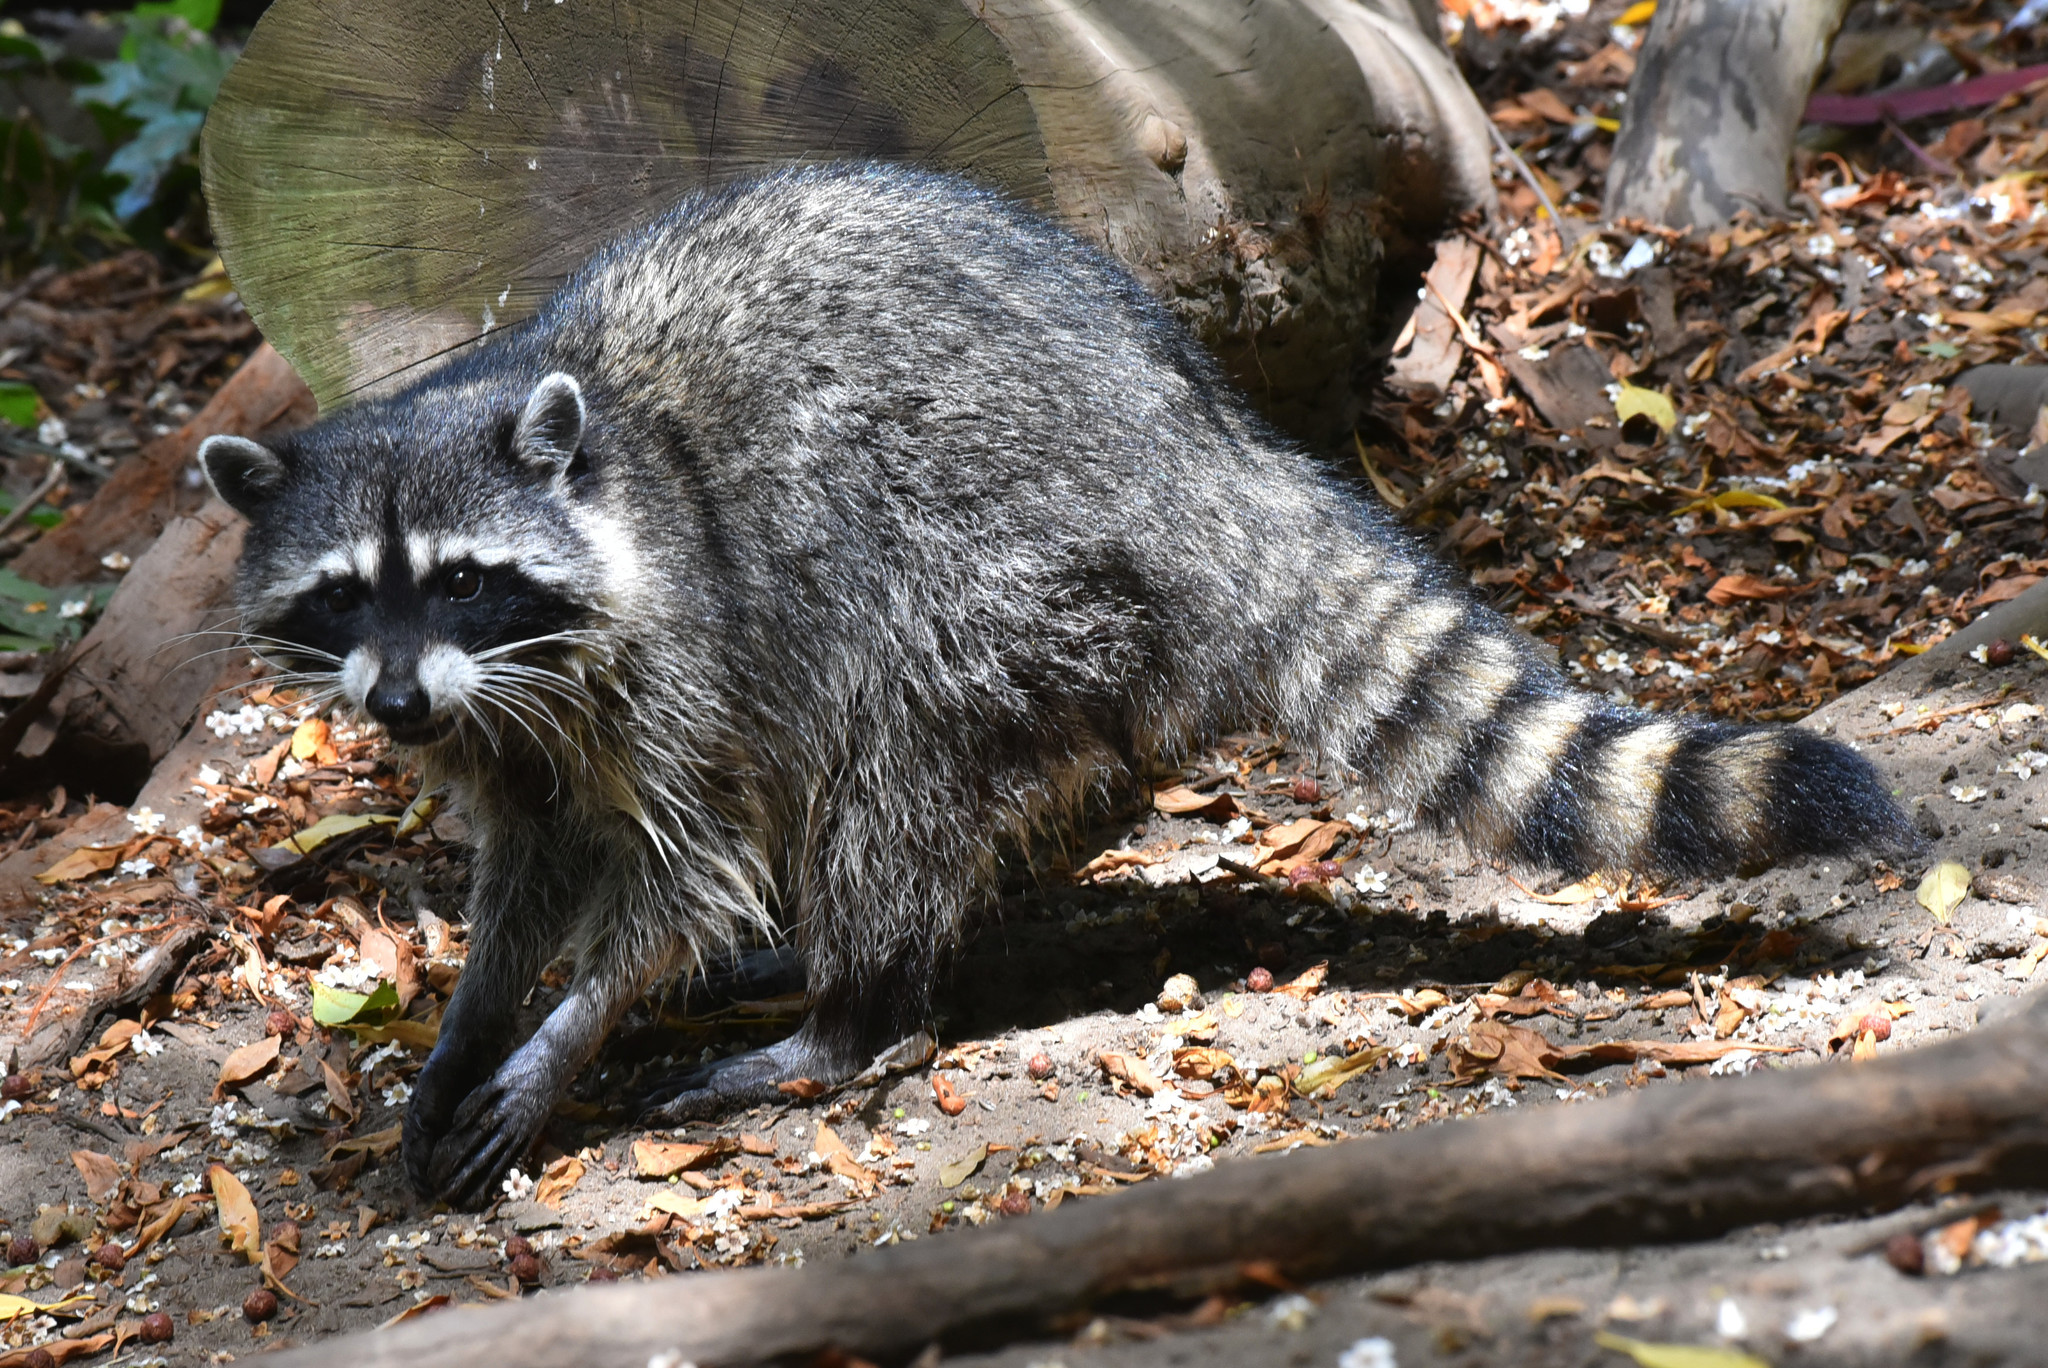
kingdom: Animalia
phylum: Chordata
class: Mammalia
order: Carnivora
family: Procyonidae
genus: Procyon
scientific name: Procyon lotor
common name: Raccoon
